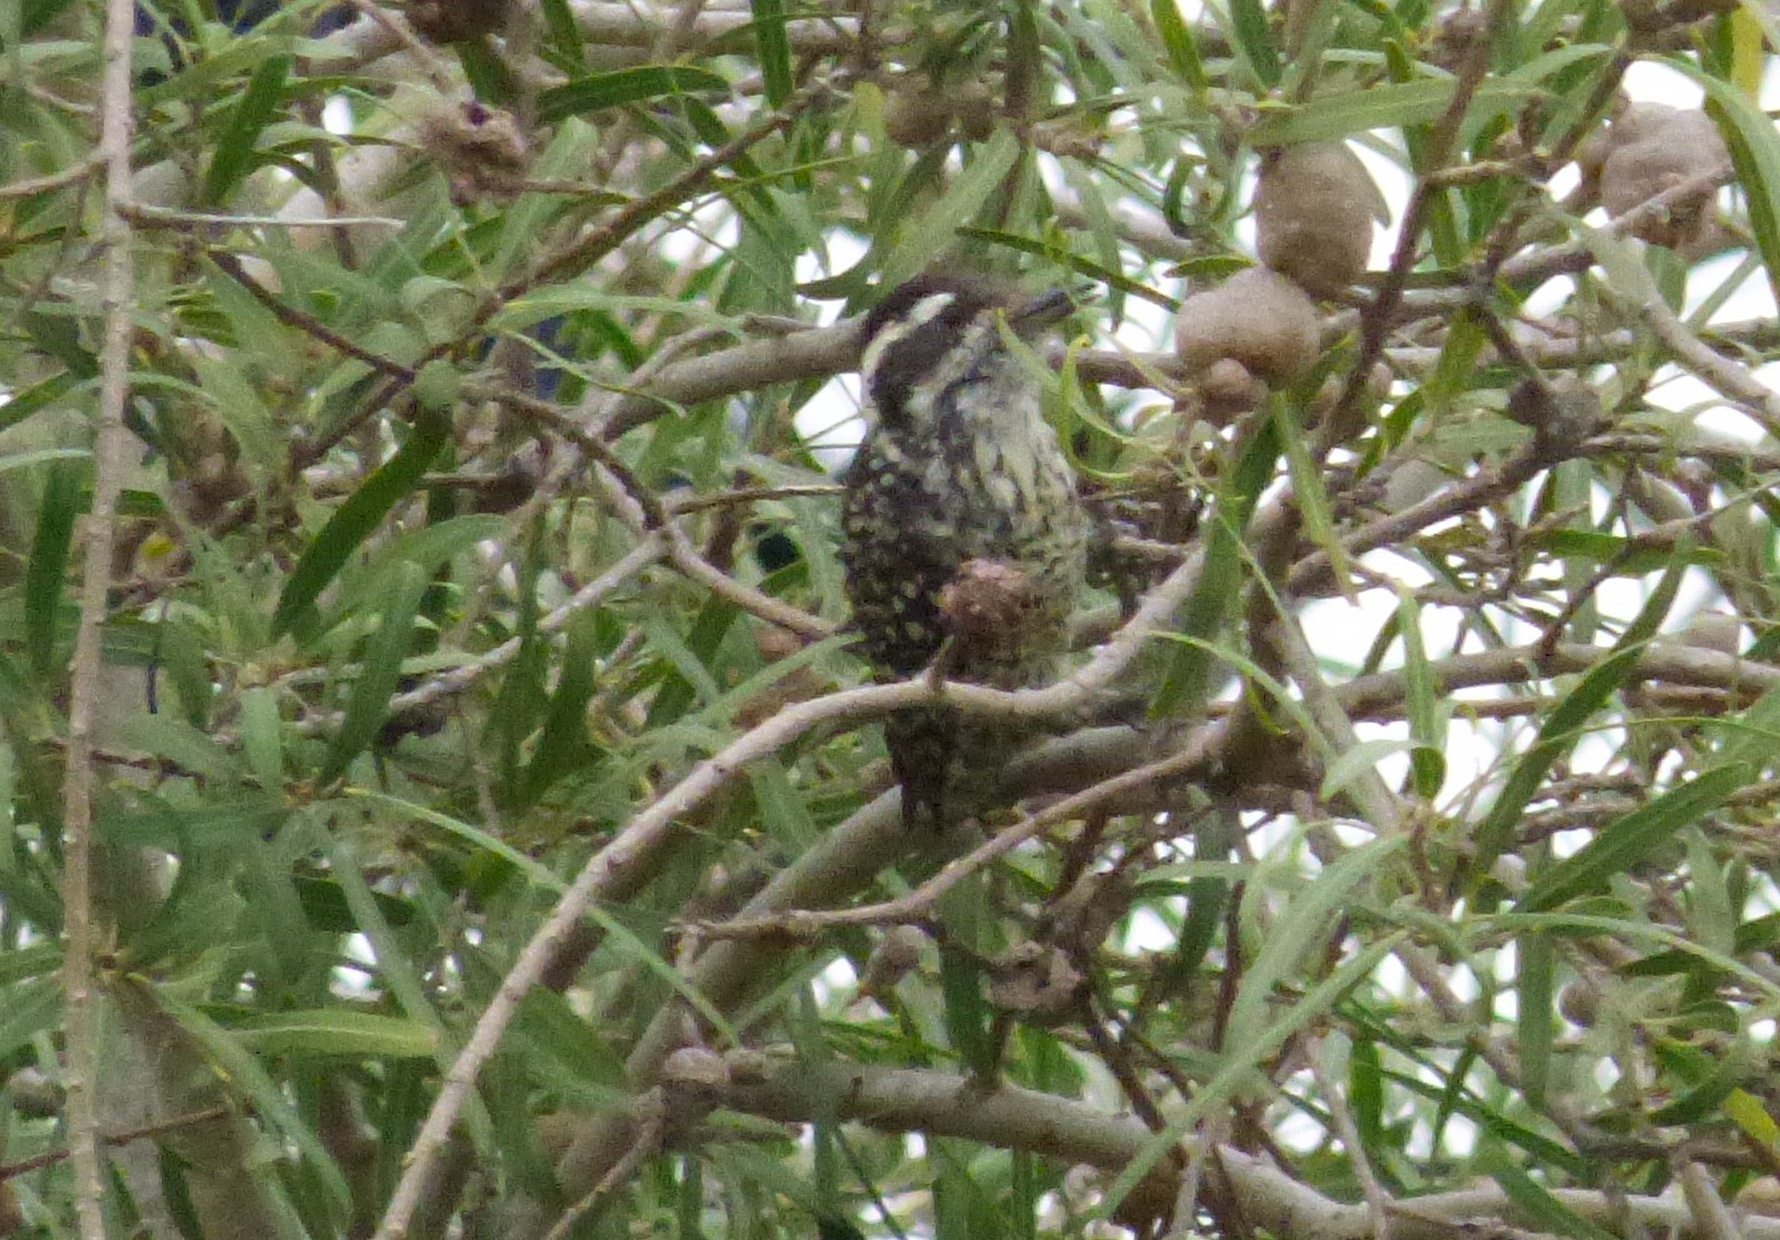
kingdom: Animalia
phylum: Chordata
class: Aves
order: Piciformes
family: Picidae
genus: Veniliornis
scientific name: Veniliornis mixtus
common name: Checkered woodpecker
